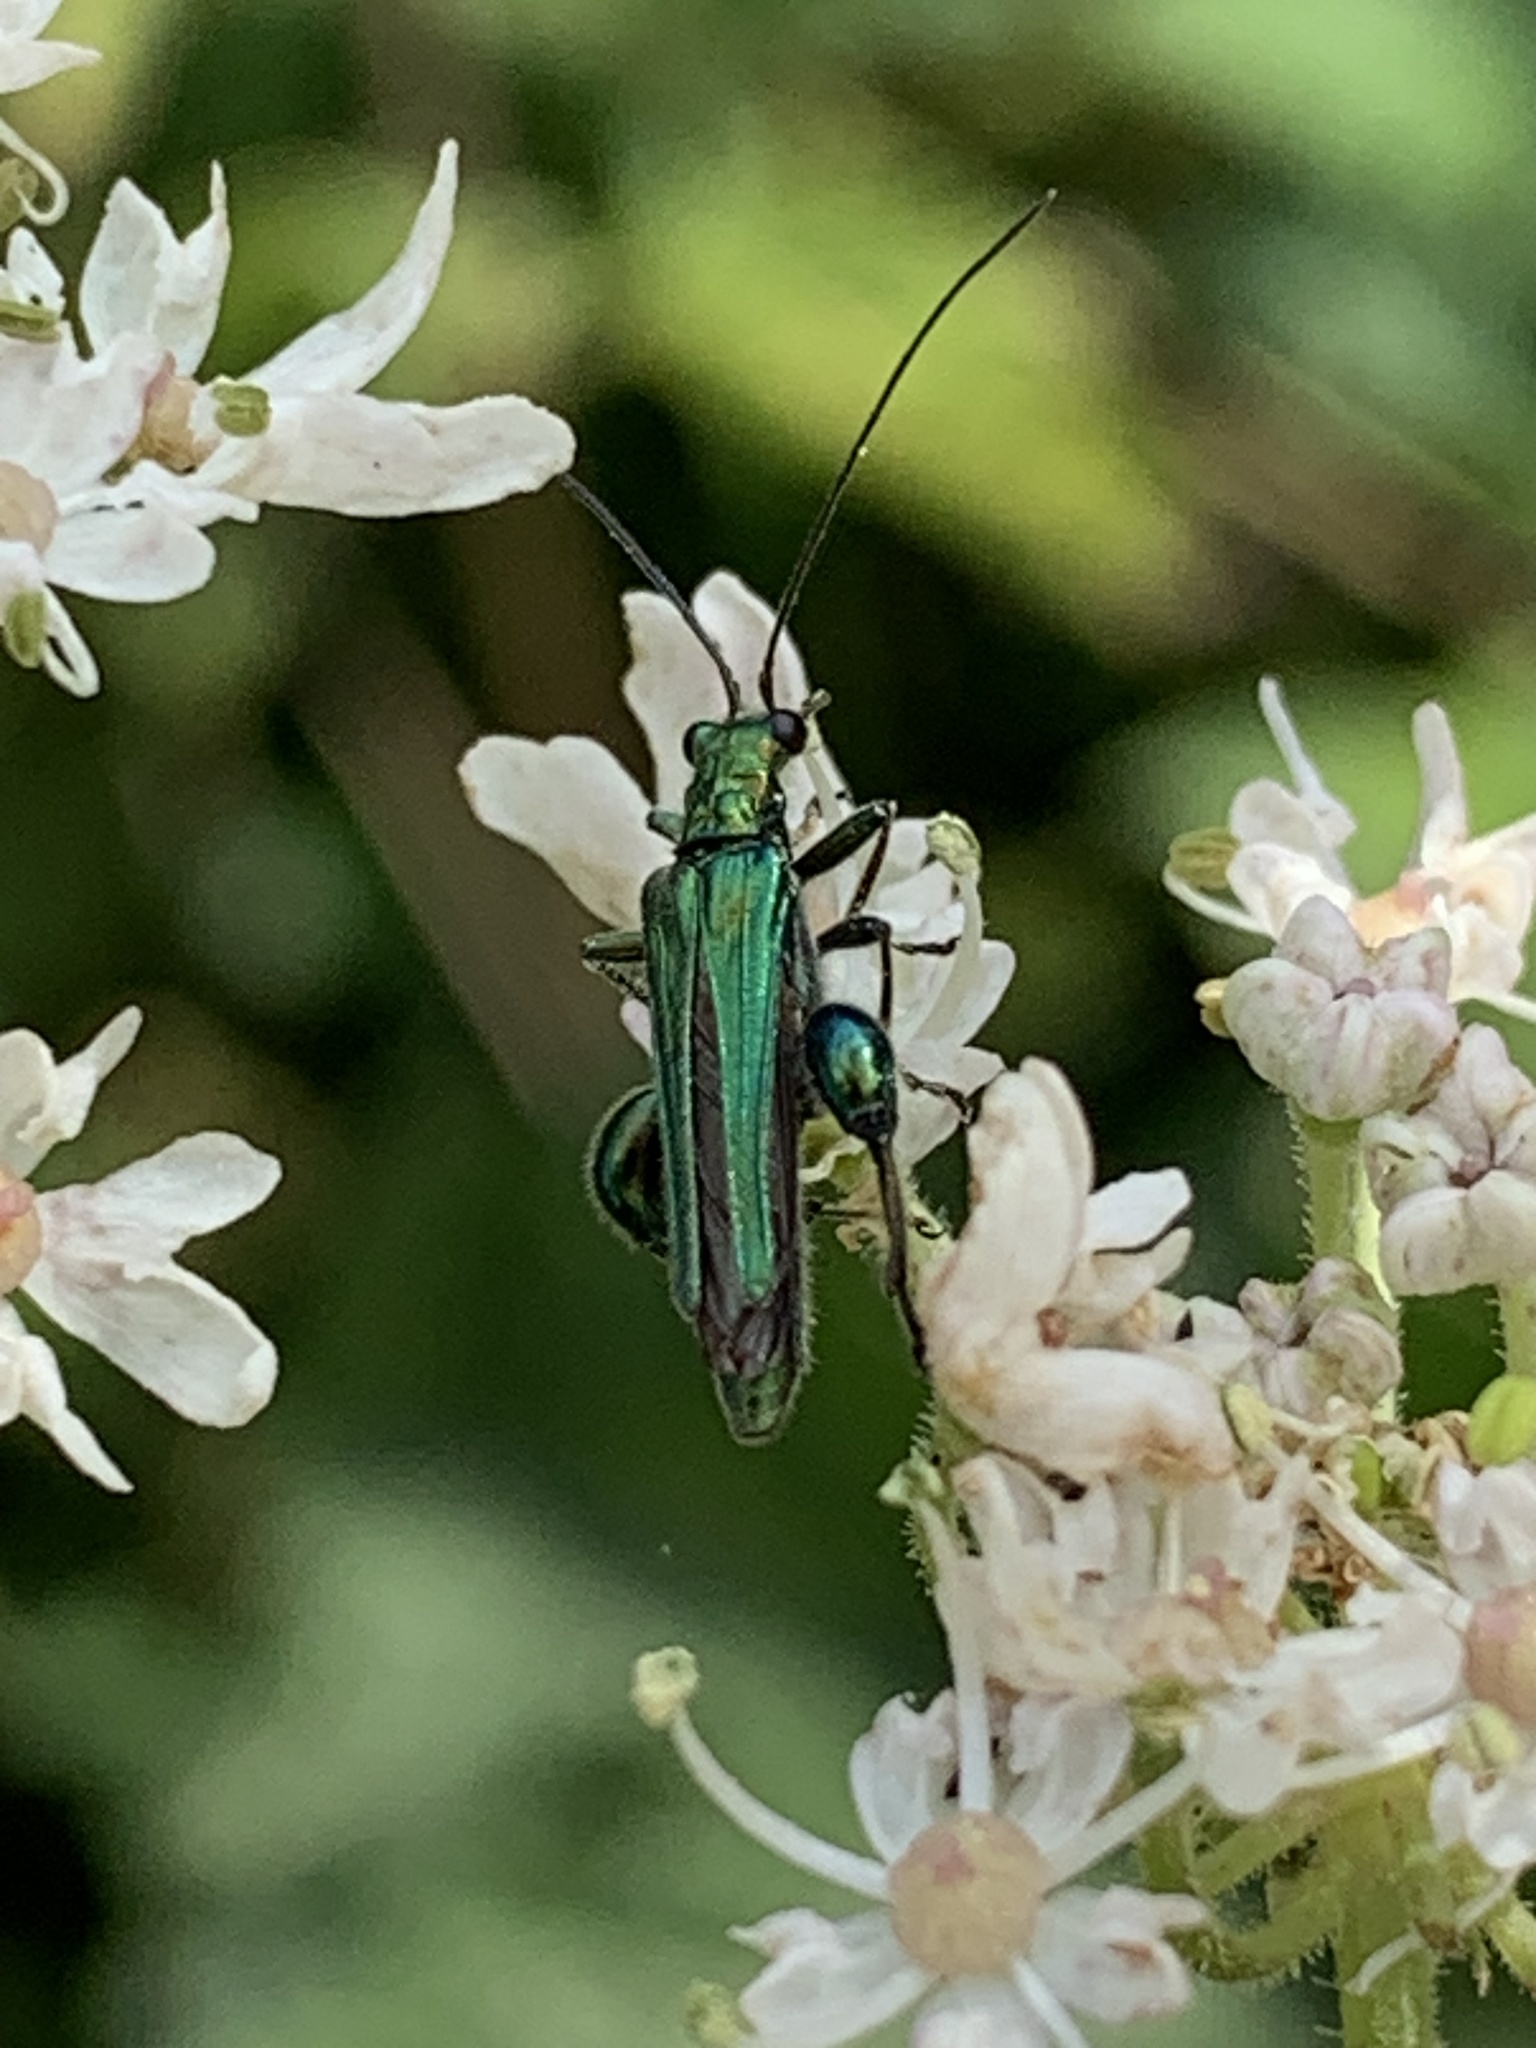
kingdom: Animalia
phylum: Arthropoda
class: Insecta
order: Coleoptera
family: Oedemeridae
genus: Oedemera
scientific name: Oedemera nobilis
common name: Swollen-thighed beetle
